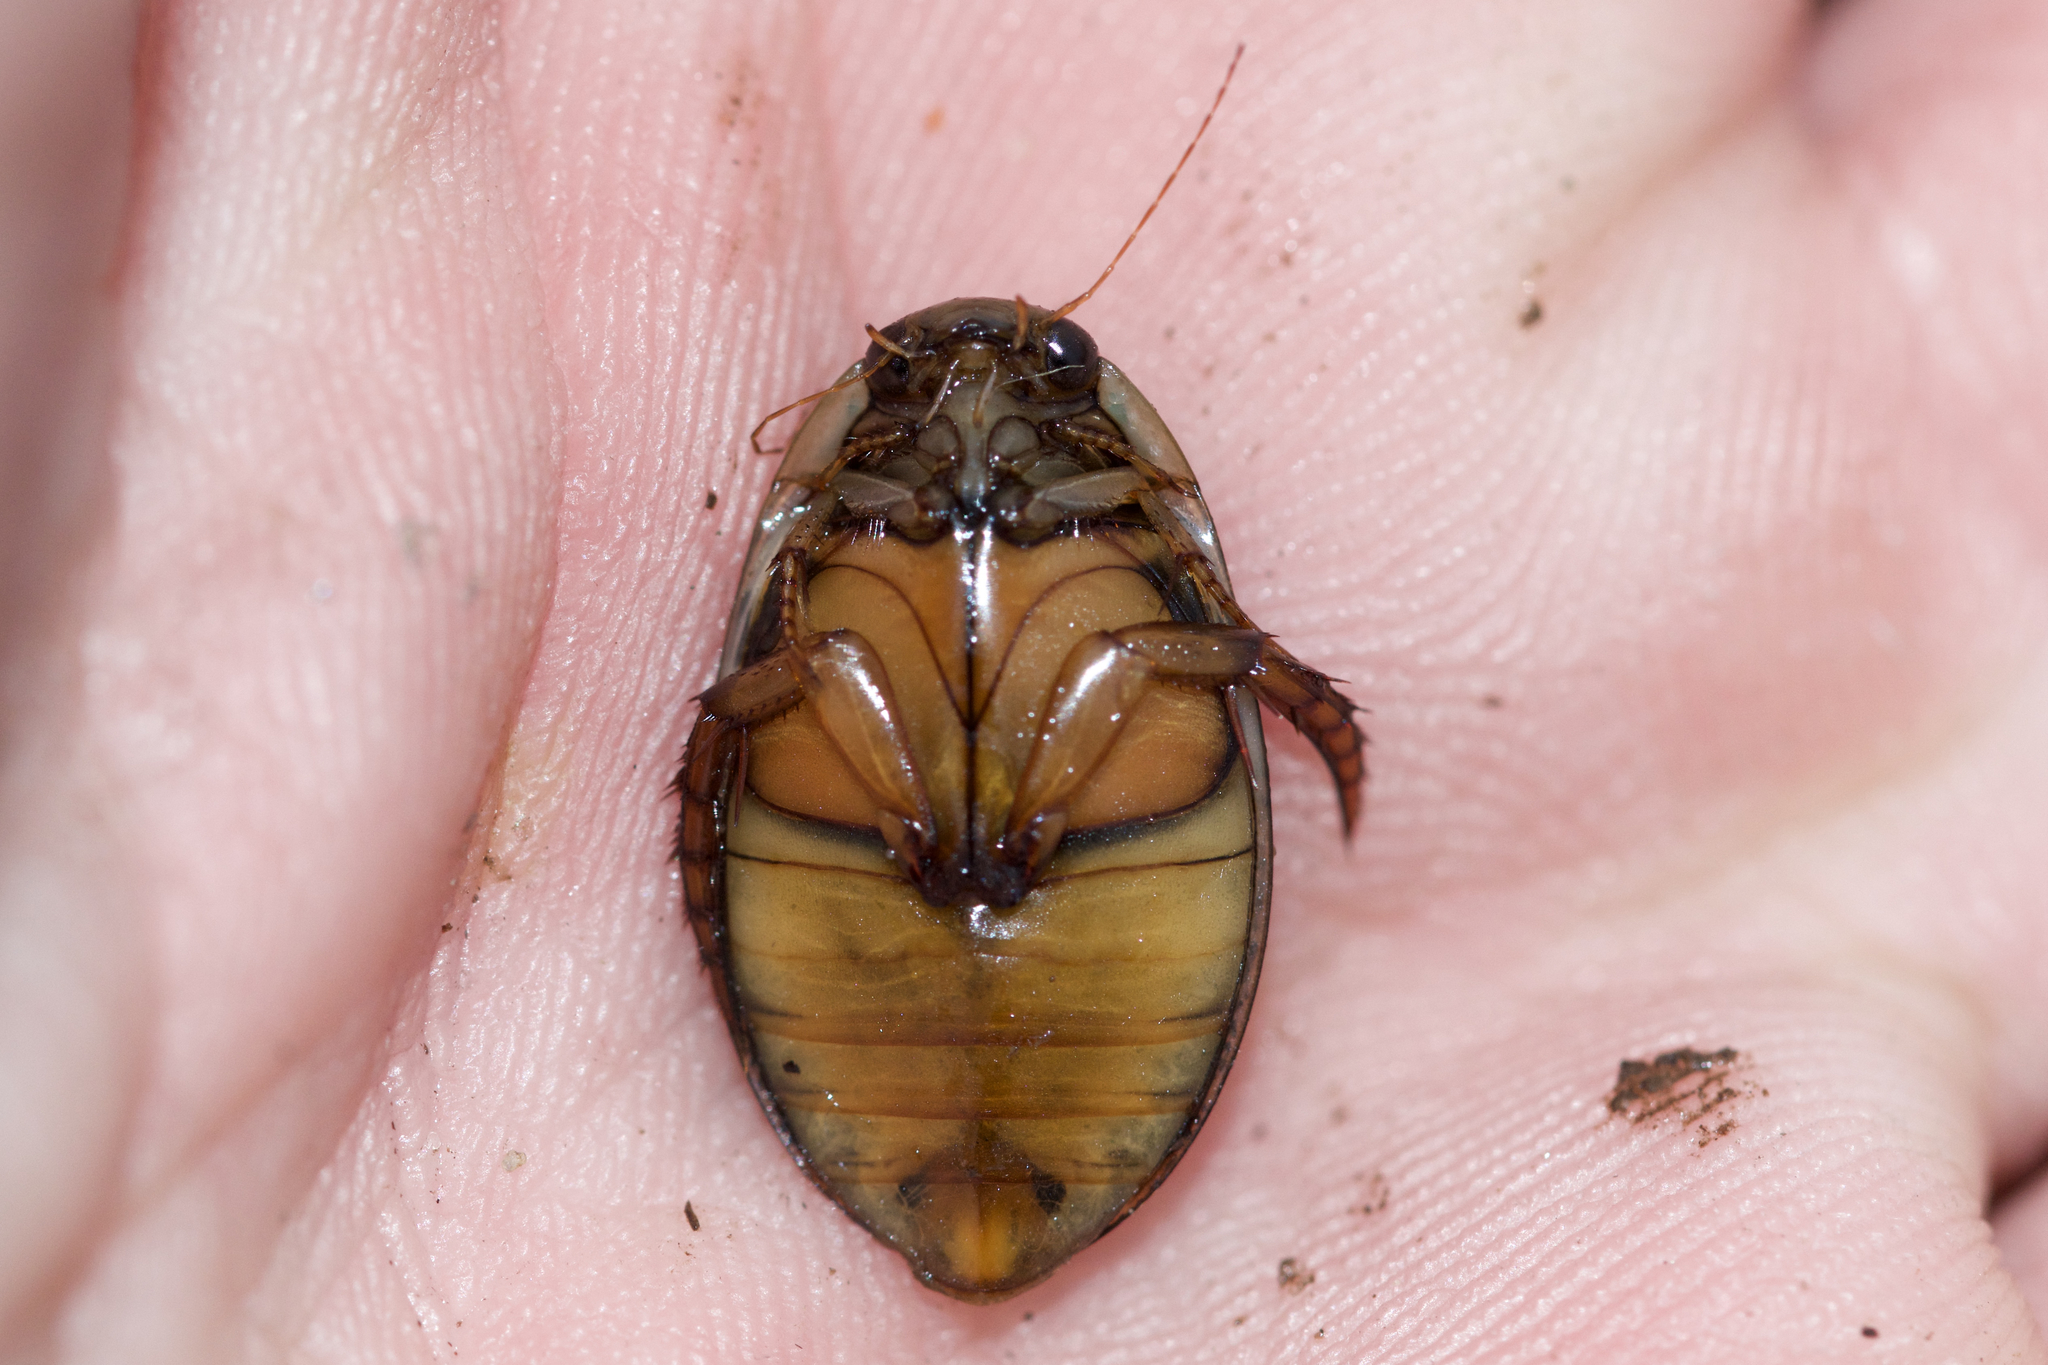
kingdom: Animalia
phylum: Arthropoda
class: Insecta
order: Coleoptera
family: Dytiscidae
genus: Acilius
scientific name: Acilius sylvanus
